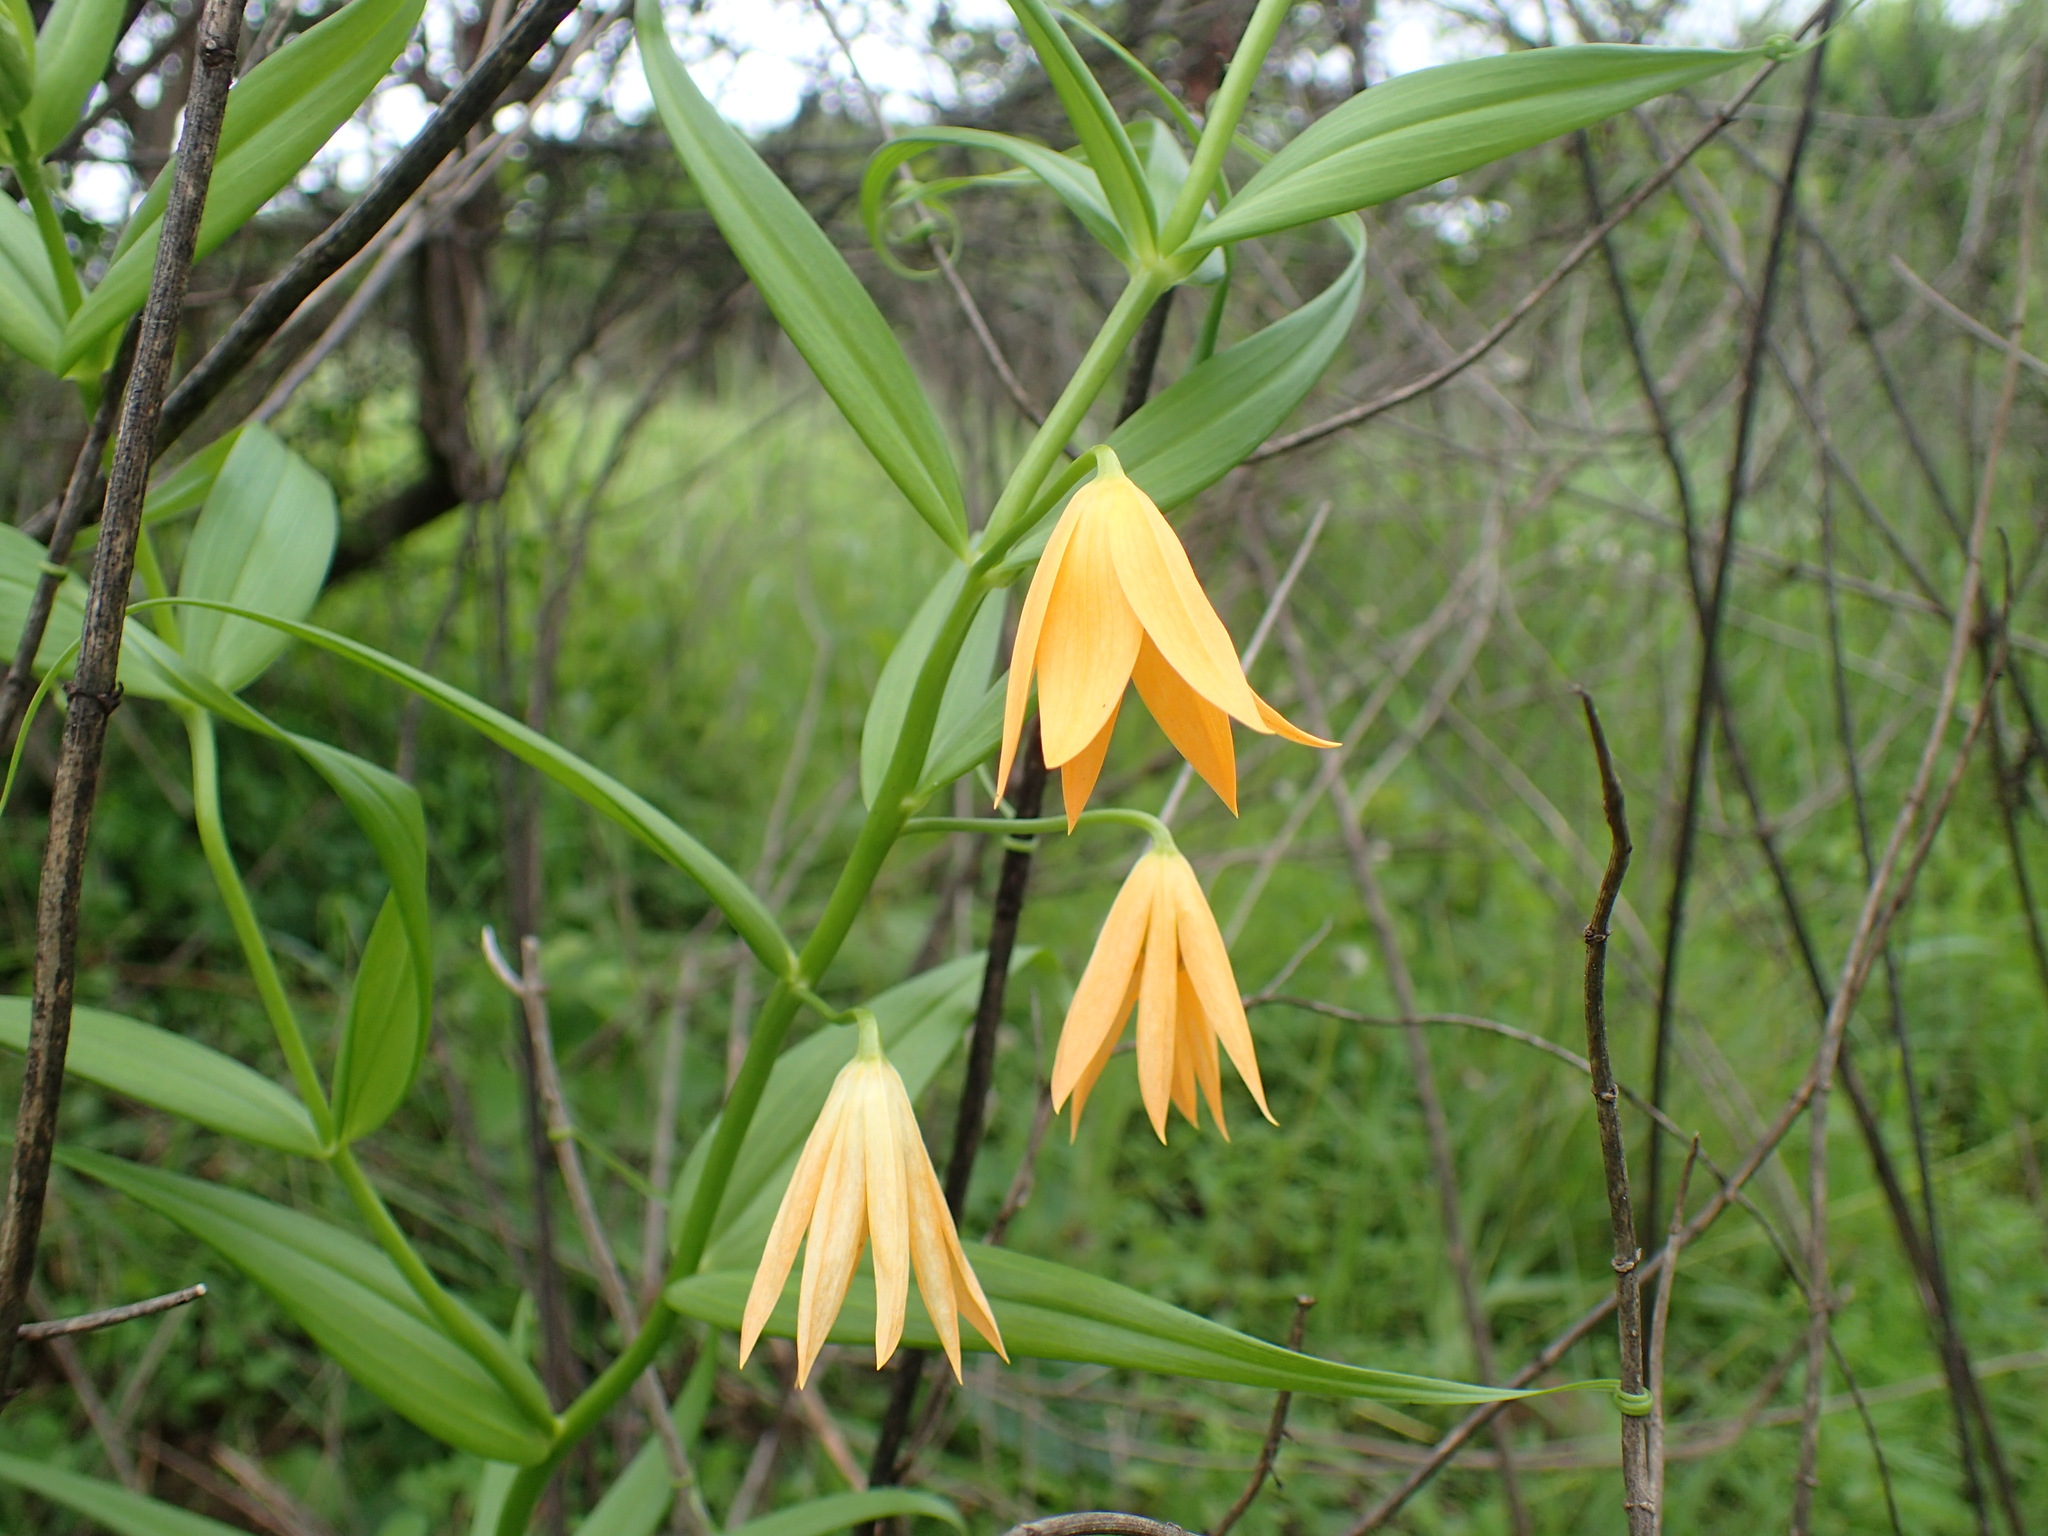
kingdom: Plantae
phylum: Tracheophyta
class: Liliopsida
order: Liliales
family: Colchicaceae
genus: Gloriosa
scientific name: Gloriosa modesta
